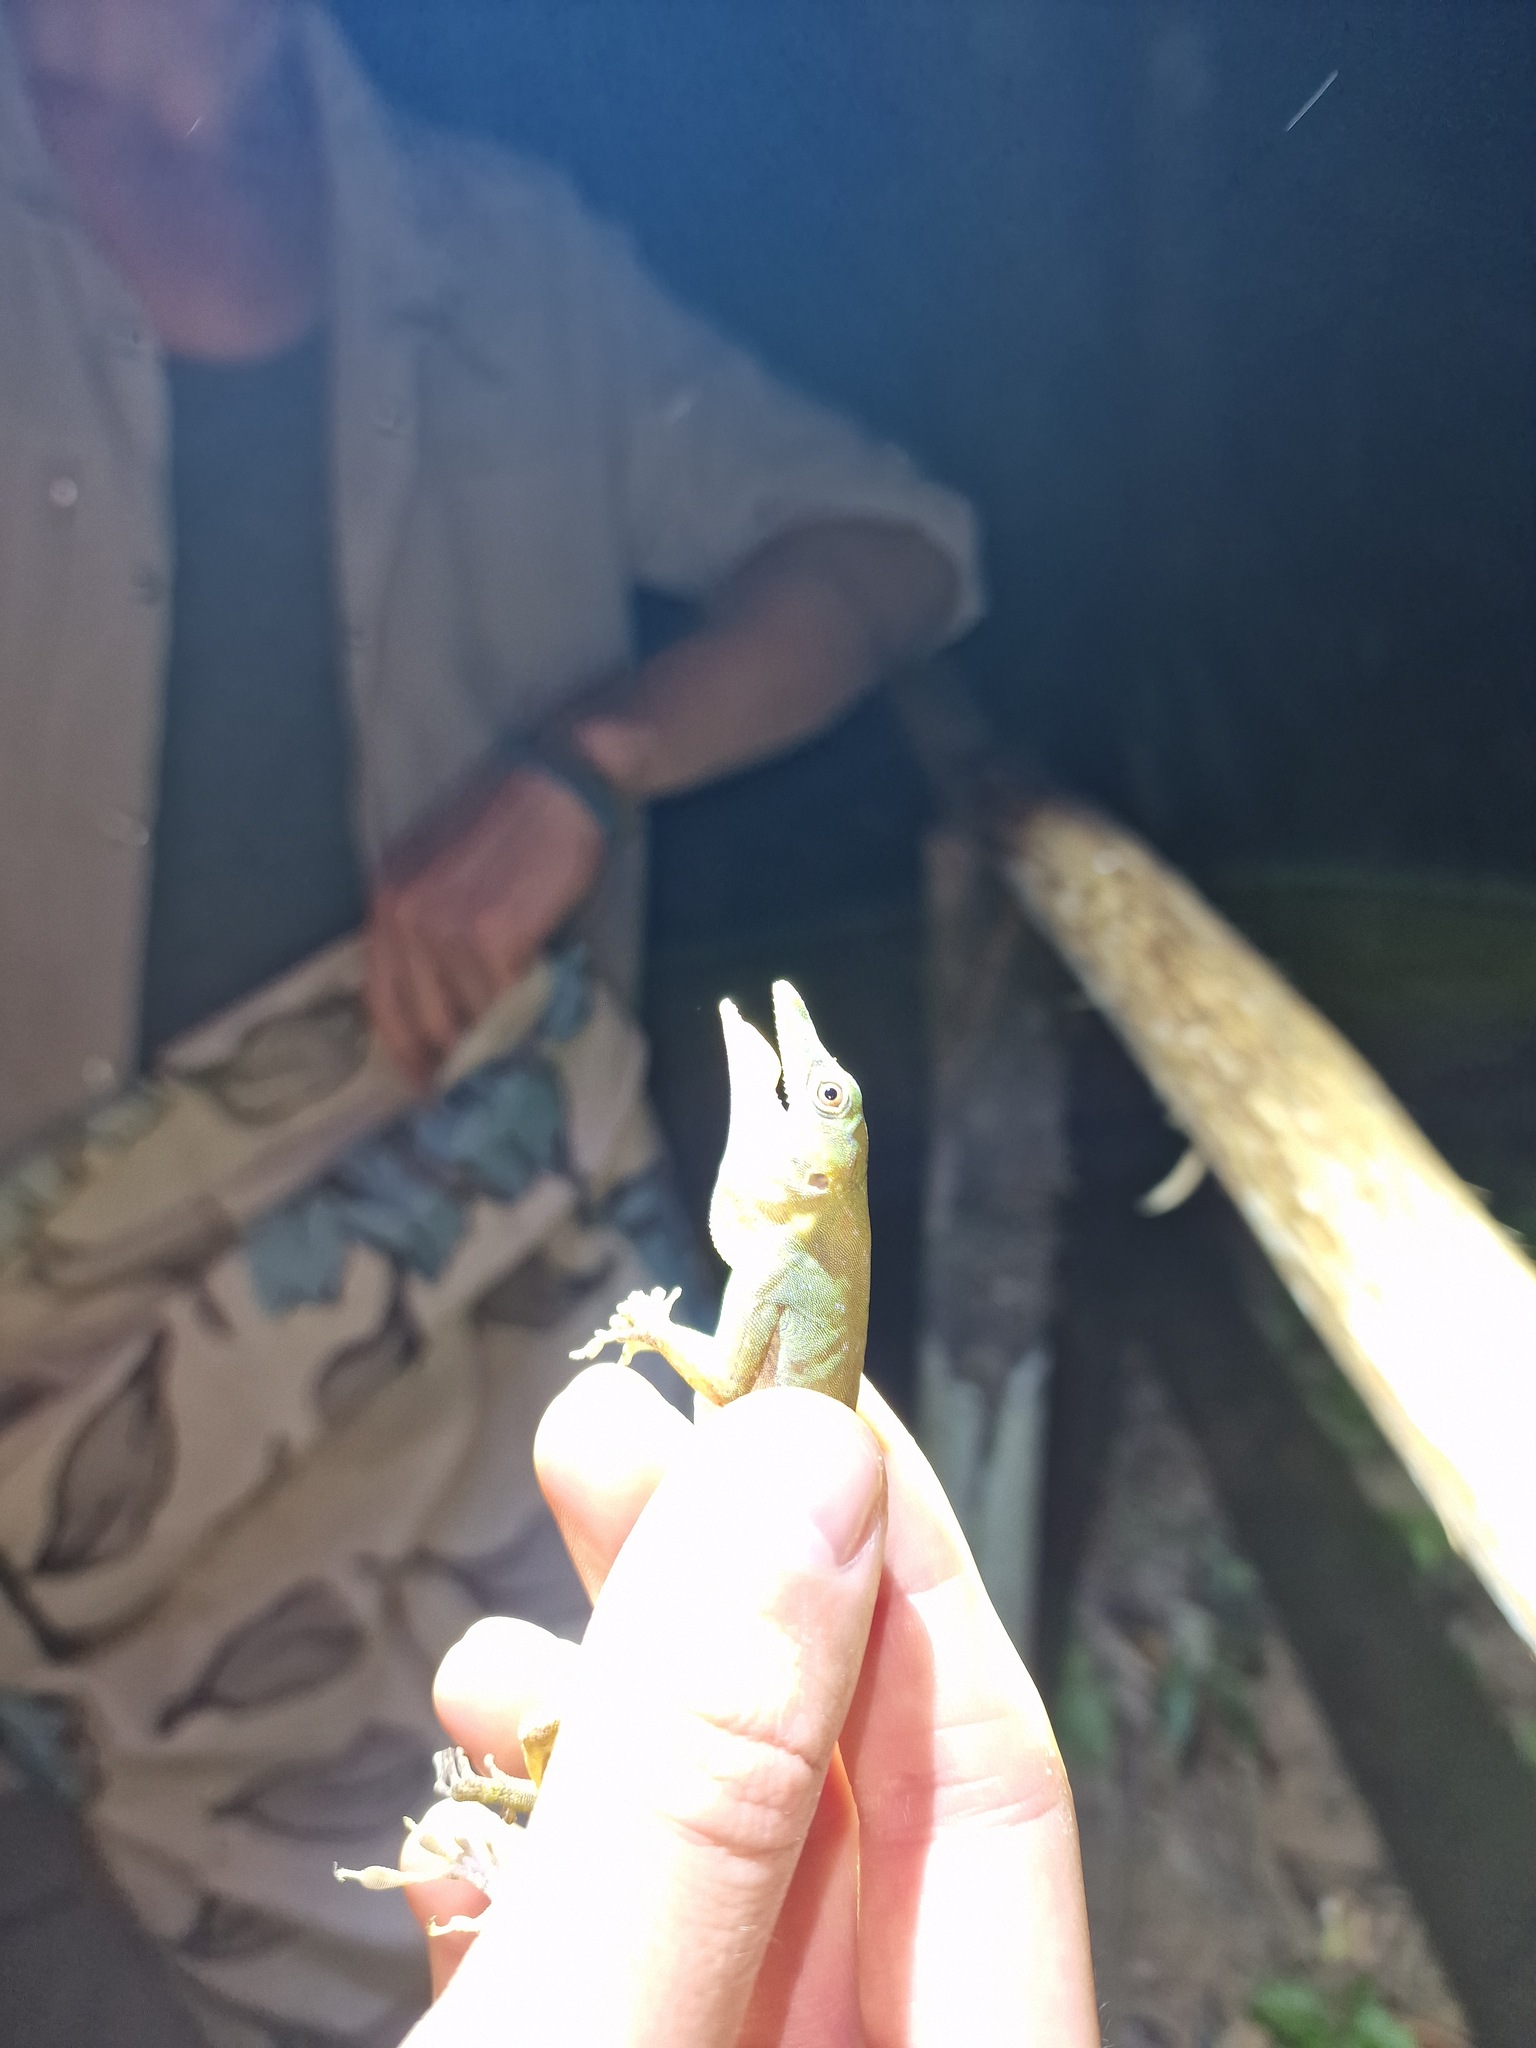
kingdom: Animalia
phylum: Chordata
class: Squamata
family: Dactyloidae
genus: Anolis
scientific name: Anolis punctatus
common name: Amazon green anole
